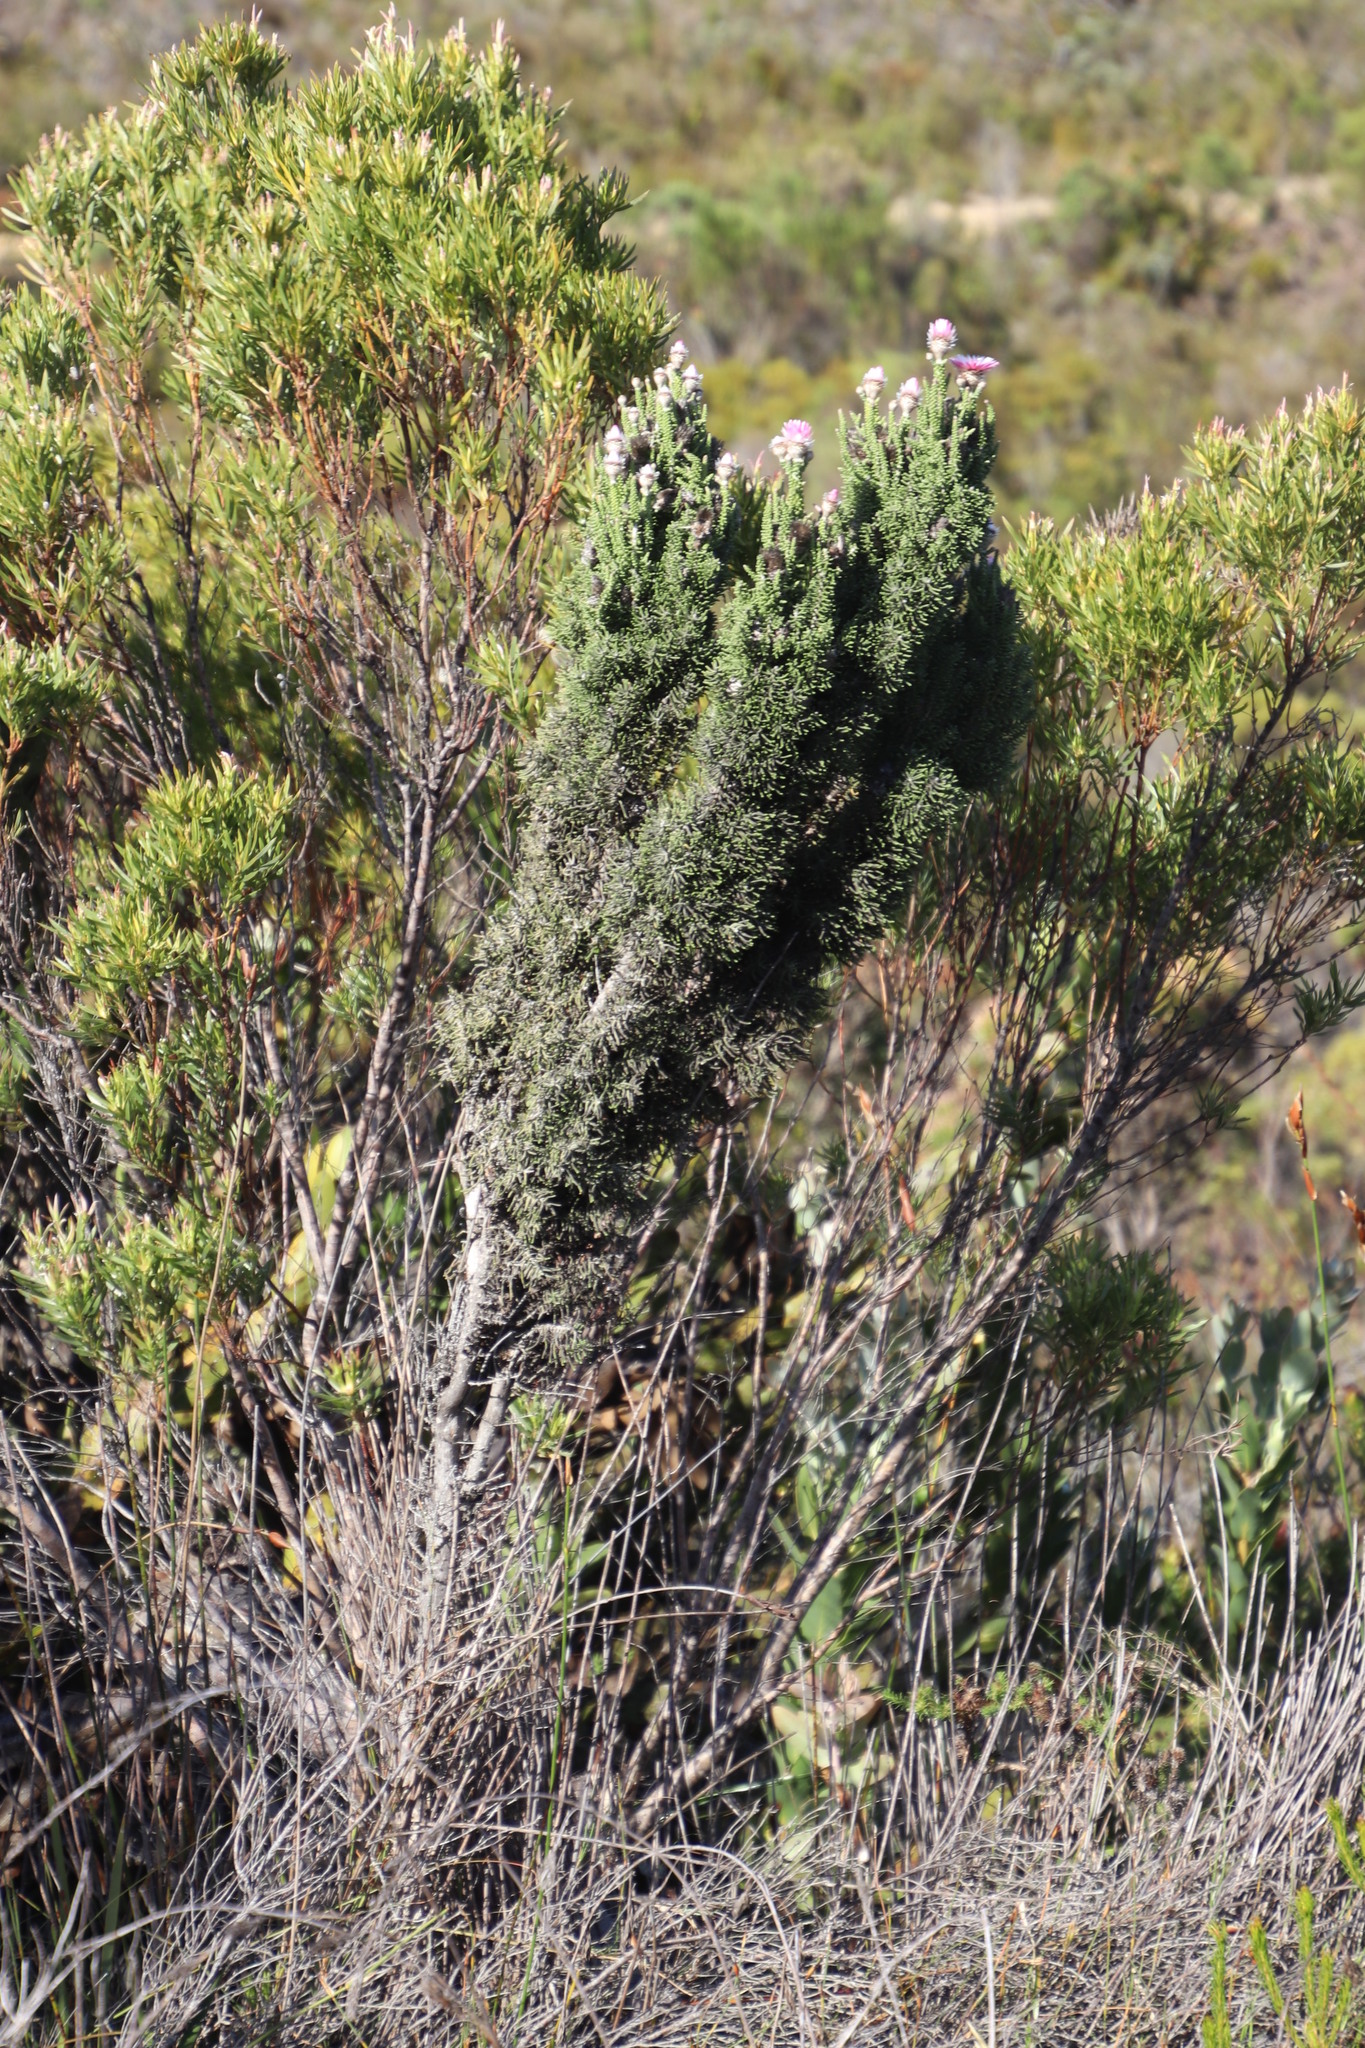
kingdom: Plantae
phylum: Tracheophyta
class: Magnoliopsida
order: Asterales
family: Asteraceae
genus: Phaenocoma
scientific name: Phaenocoma prolifera
